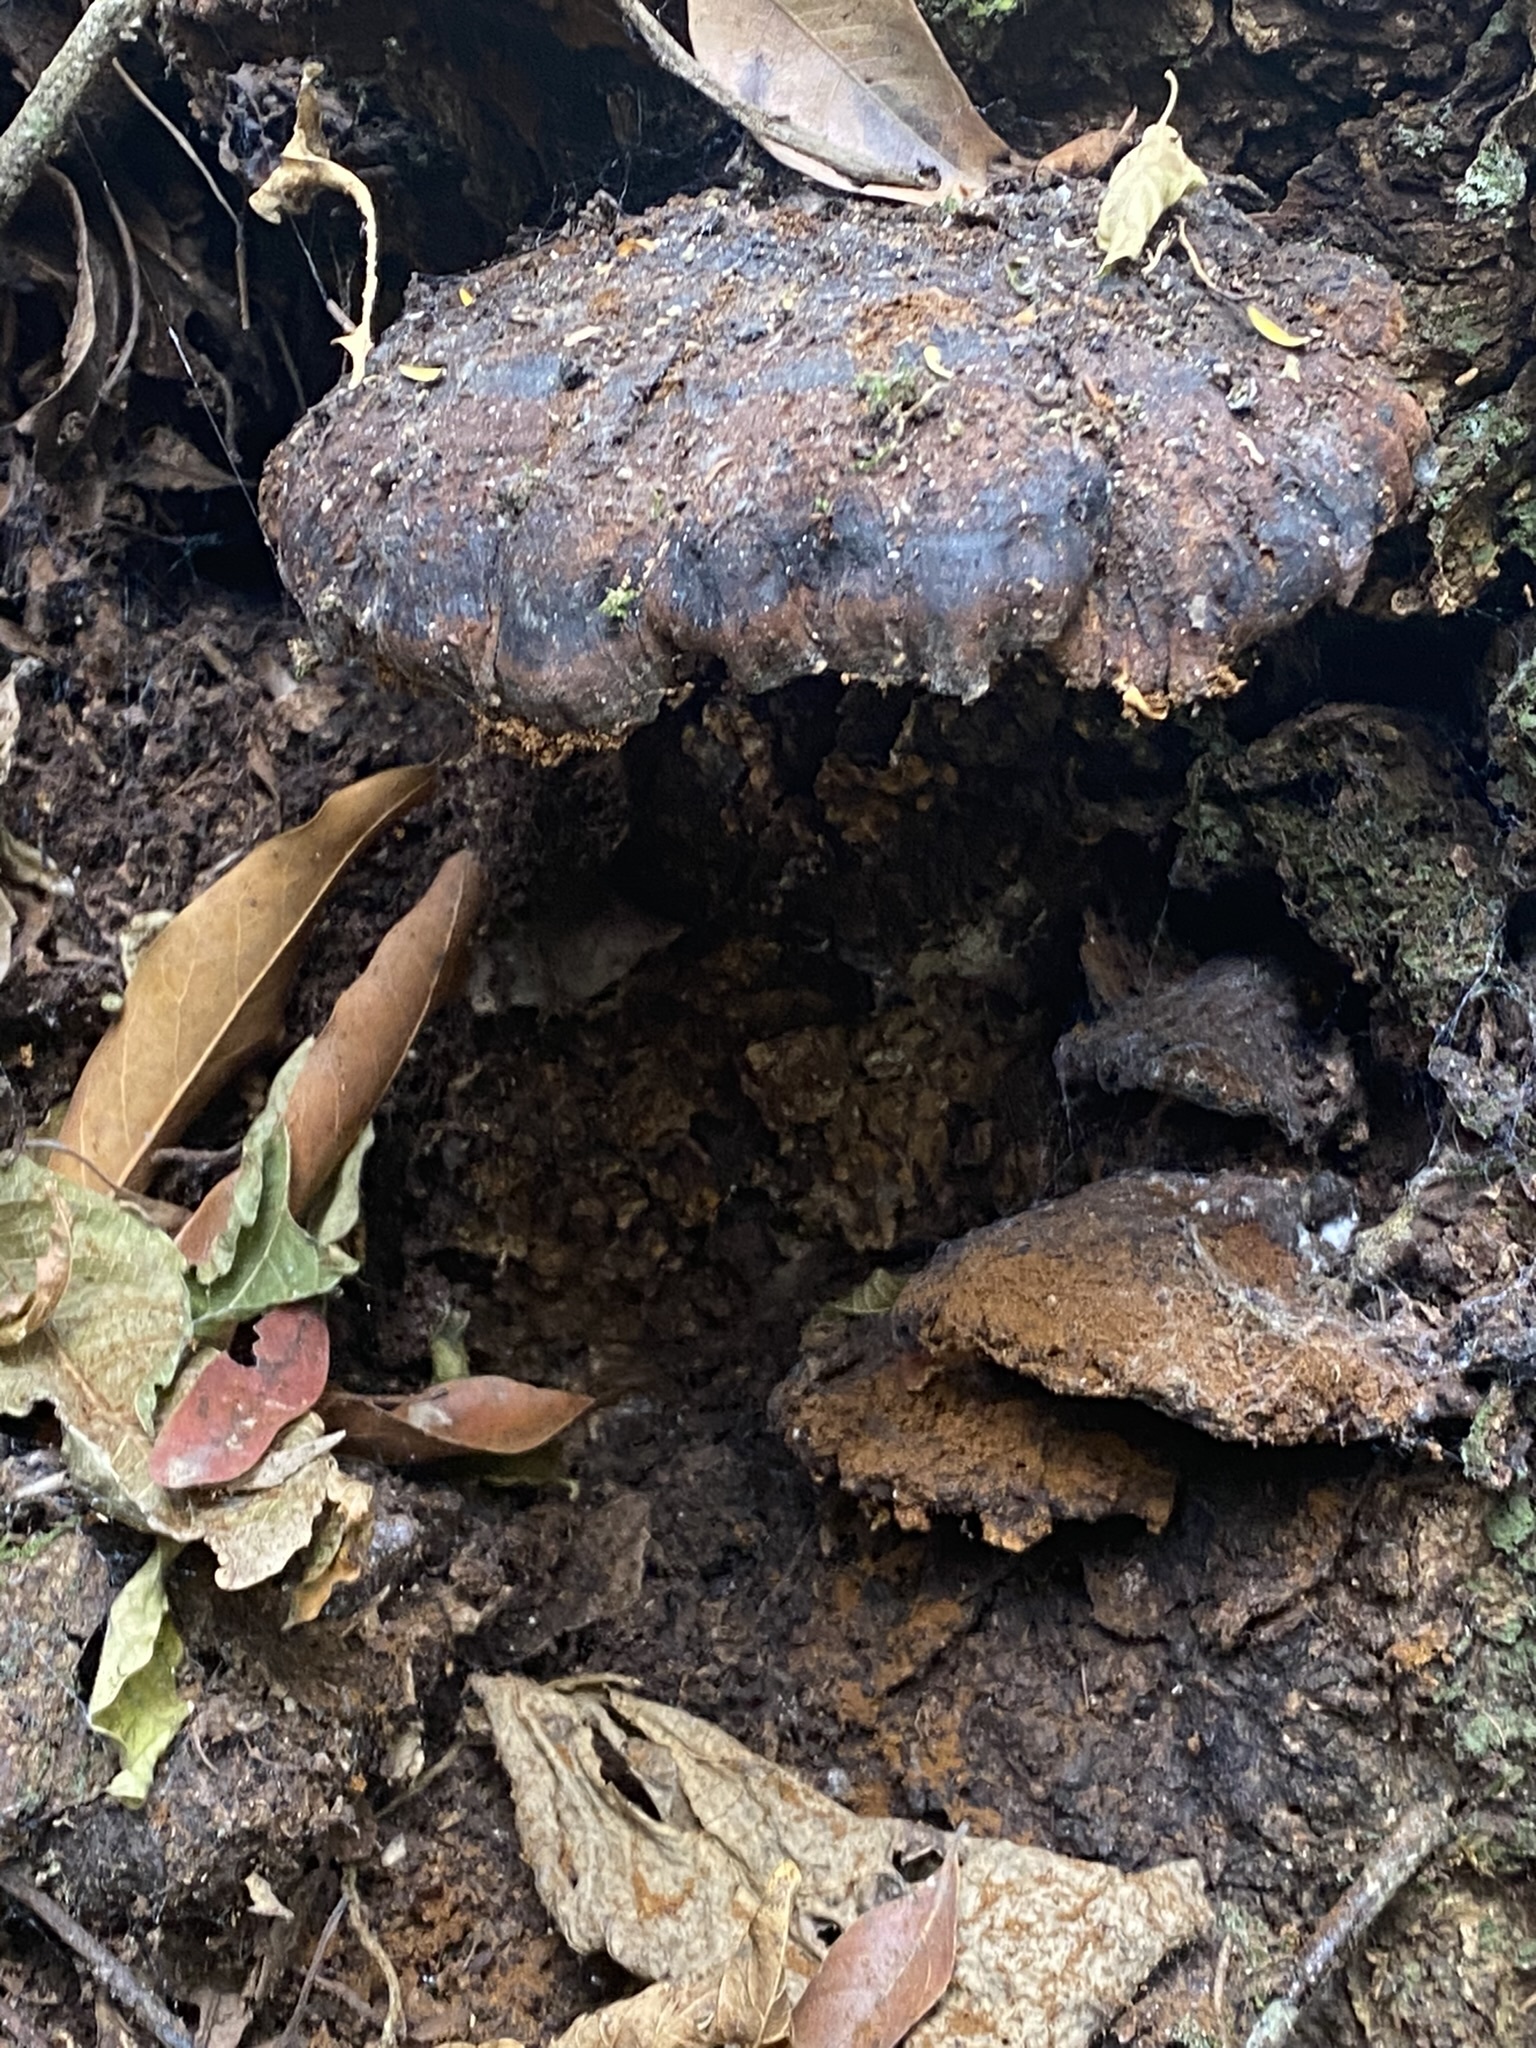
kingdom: Plantae
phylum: Tracheophyta
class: Magnoliopsida
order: Caryophyllales
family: Cactaceae
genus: Pfeiffera
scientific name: Pfeiffera monacantha
